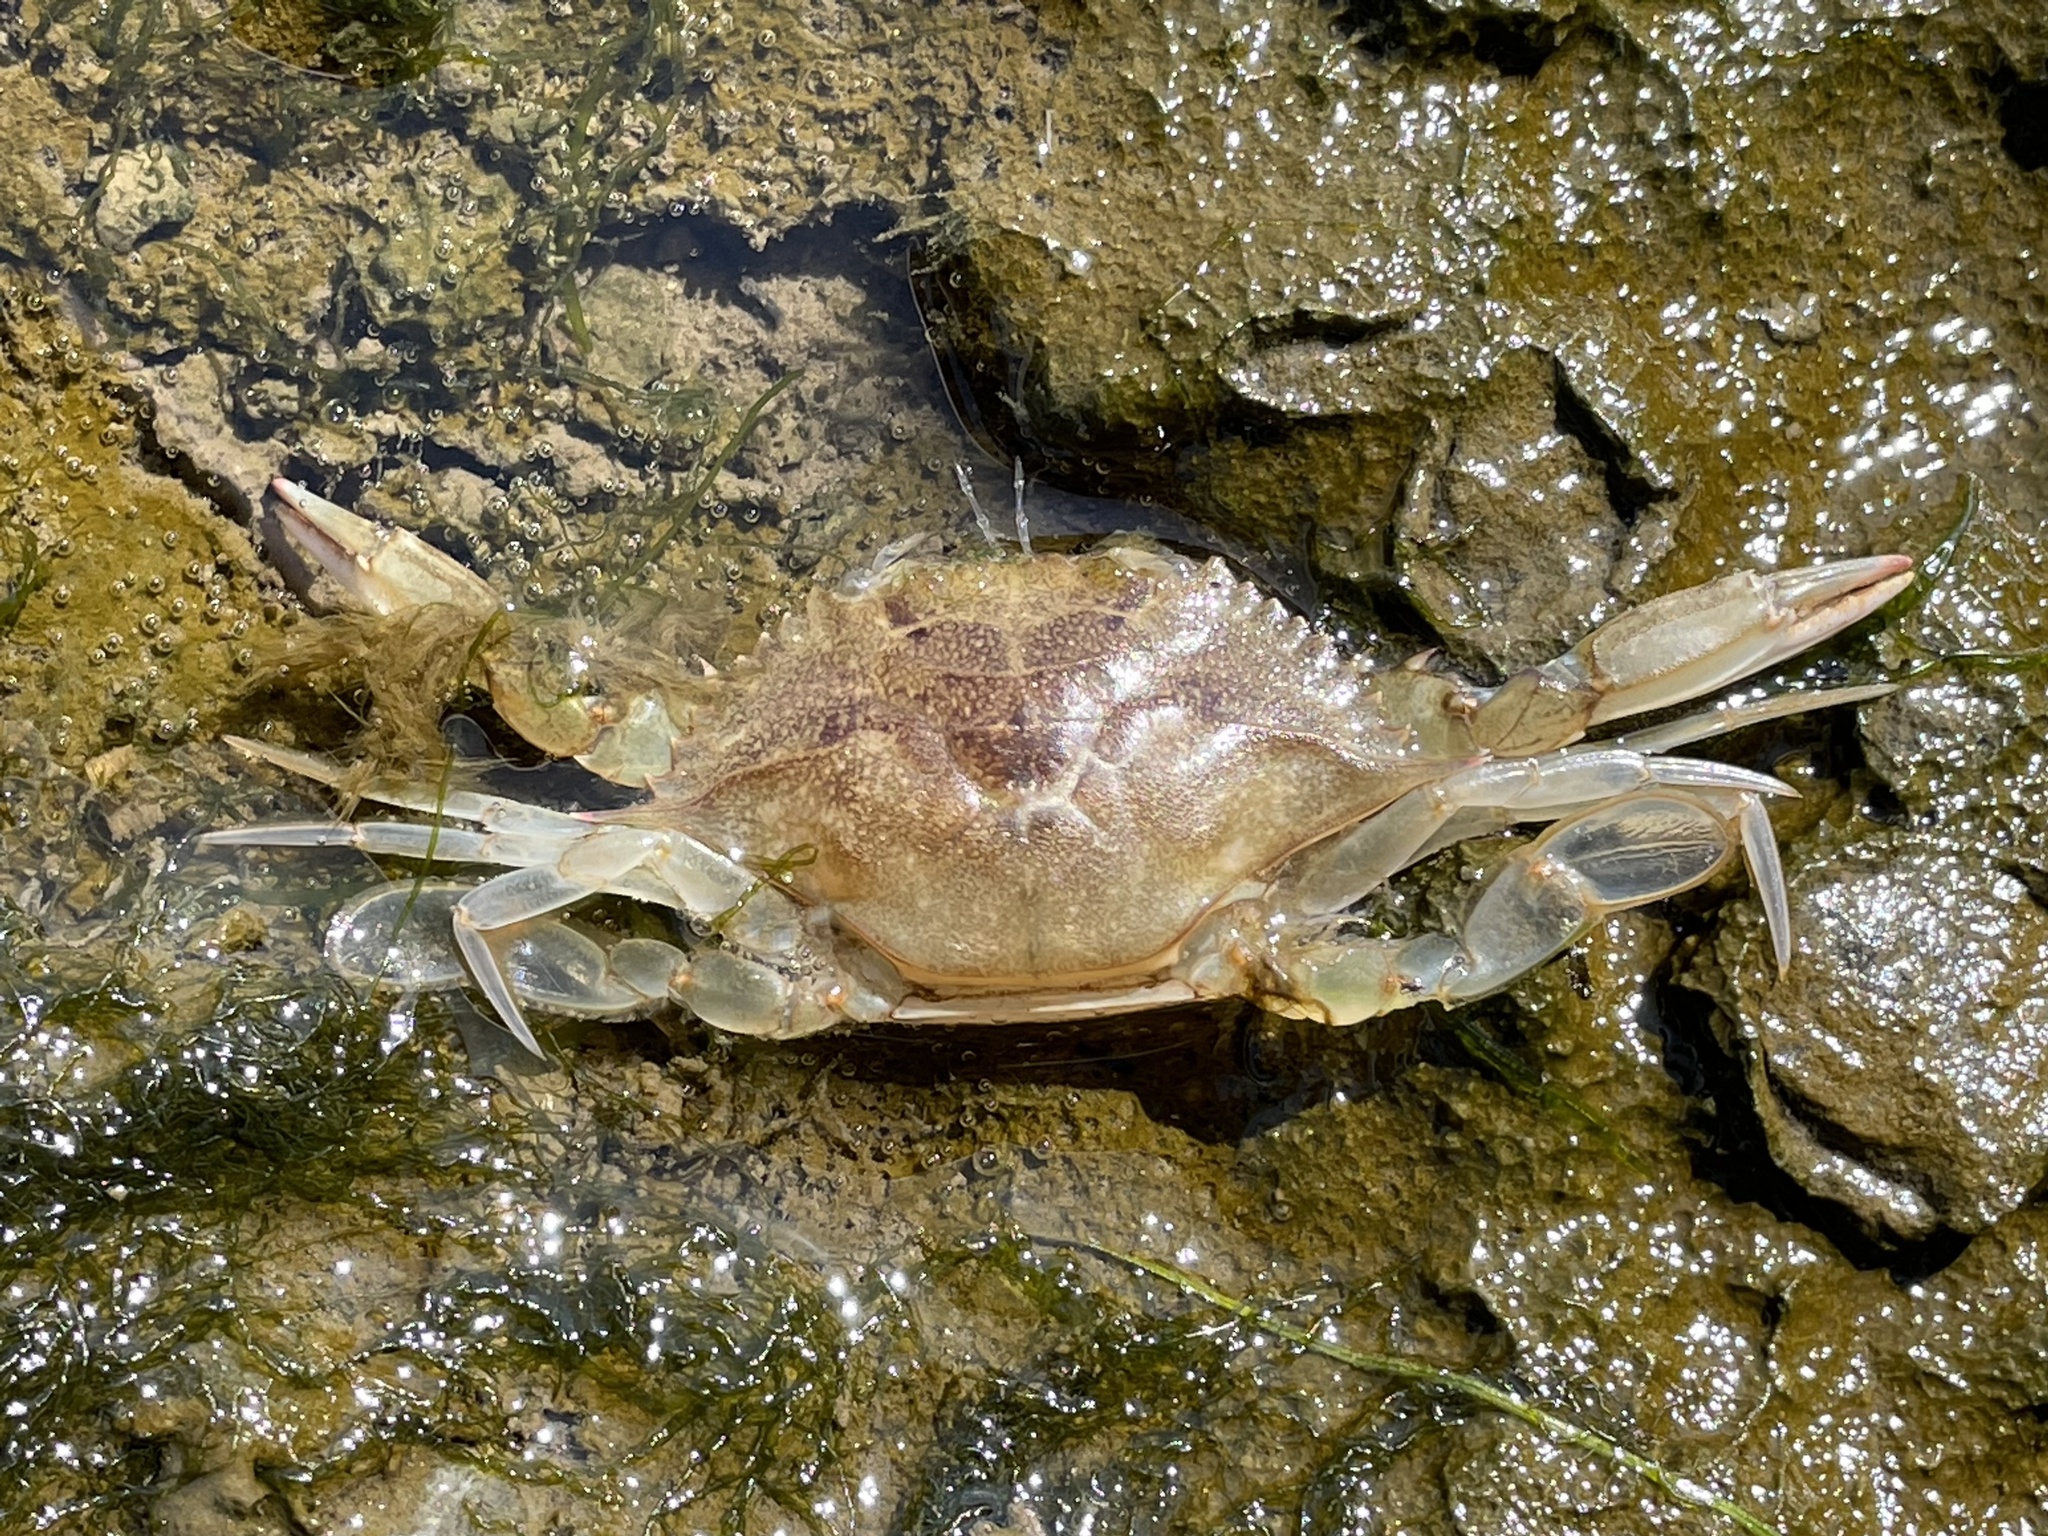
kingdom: Animalia
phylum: Arthropoda
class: Malacostraca
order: Decapoda
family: Portunidae
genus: Callinectes
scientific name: Callinectes sapidus
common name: Blue crab
